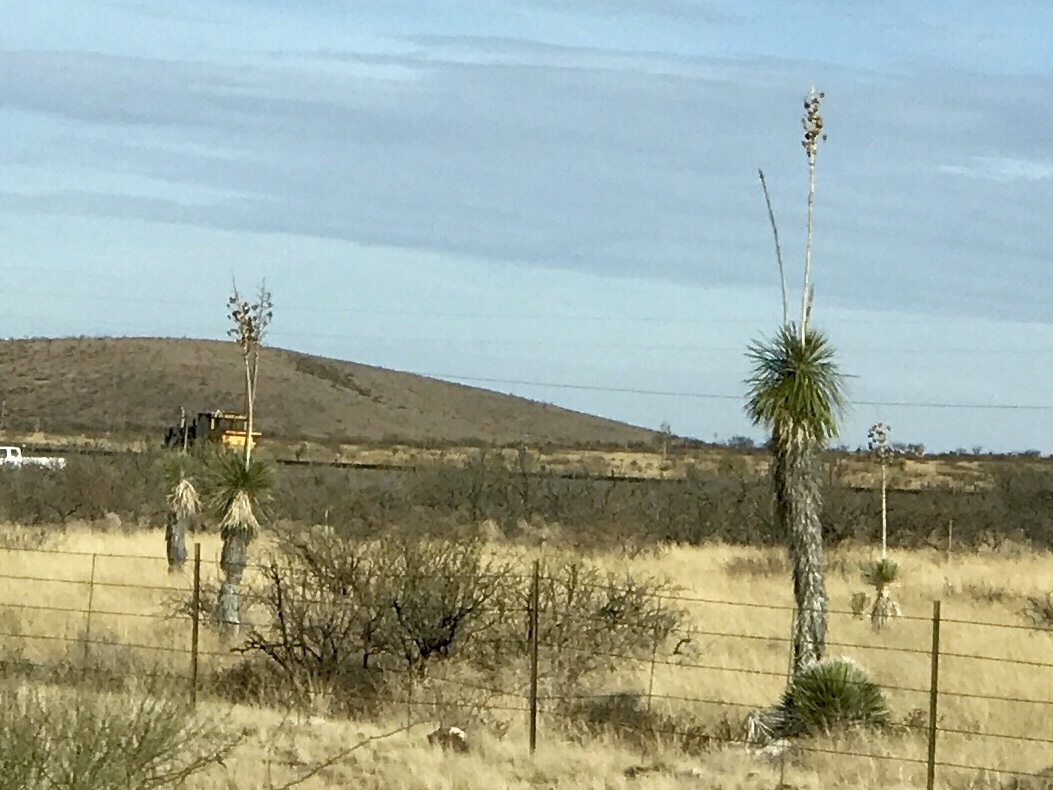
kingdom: Plantae
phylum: Tracheophyta
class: Liliopsida
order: Asparagales
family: Asparagaceae
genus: Yucca
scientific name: Yucca elata
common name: Palmella
